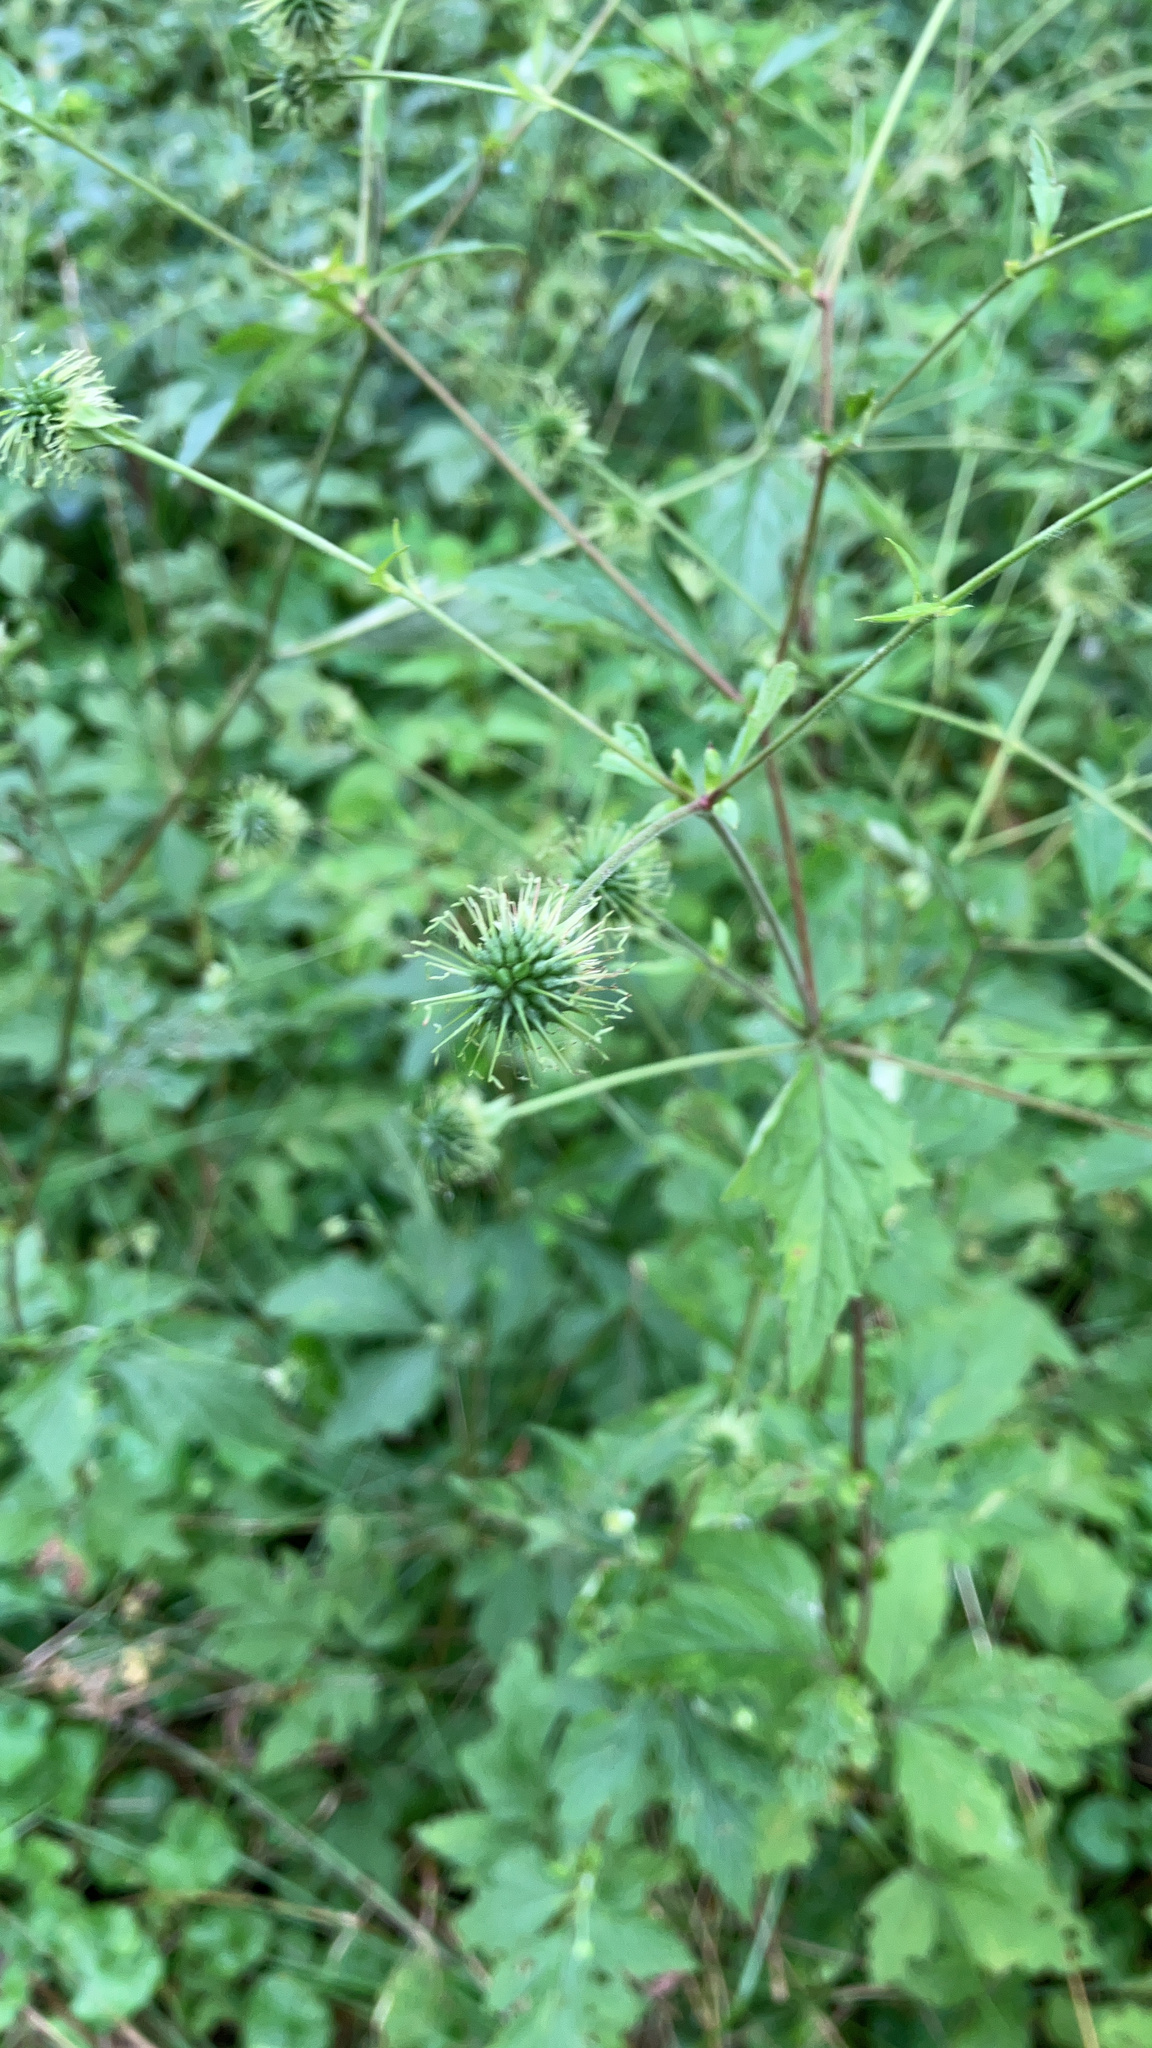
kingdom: Plantae
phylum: Tracheophyta
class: Magnoliopsida
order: Rosales
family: Rosaceae
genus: Geum
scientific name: Geum canadense
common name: White avens
